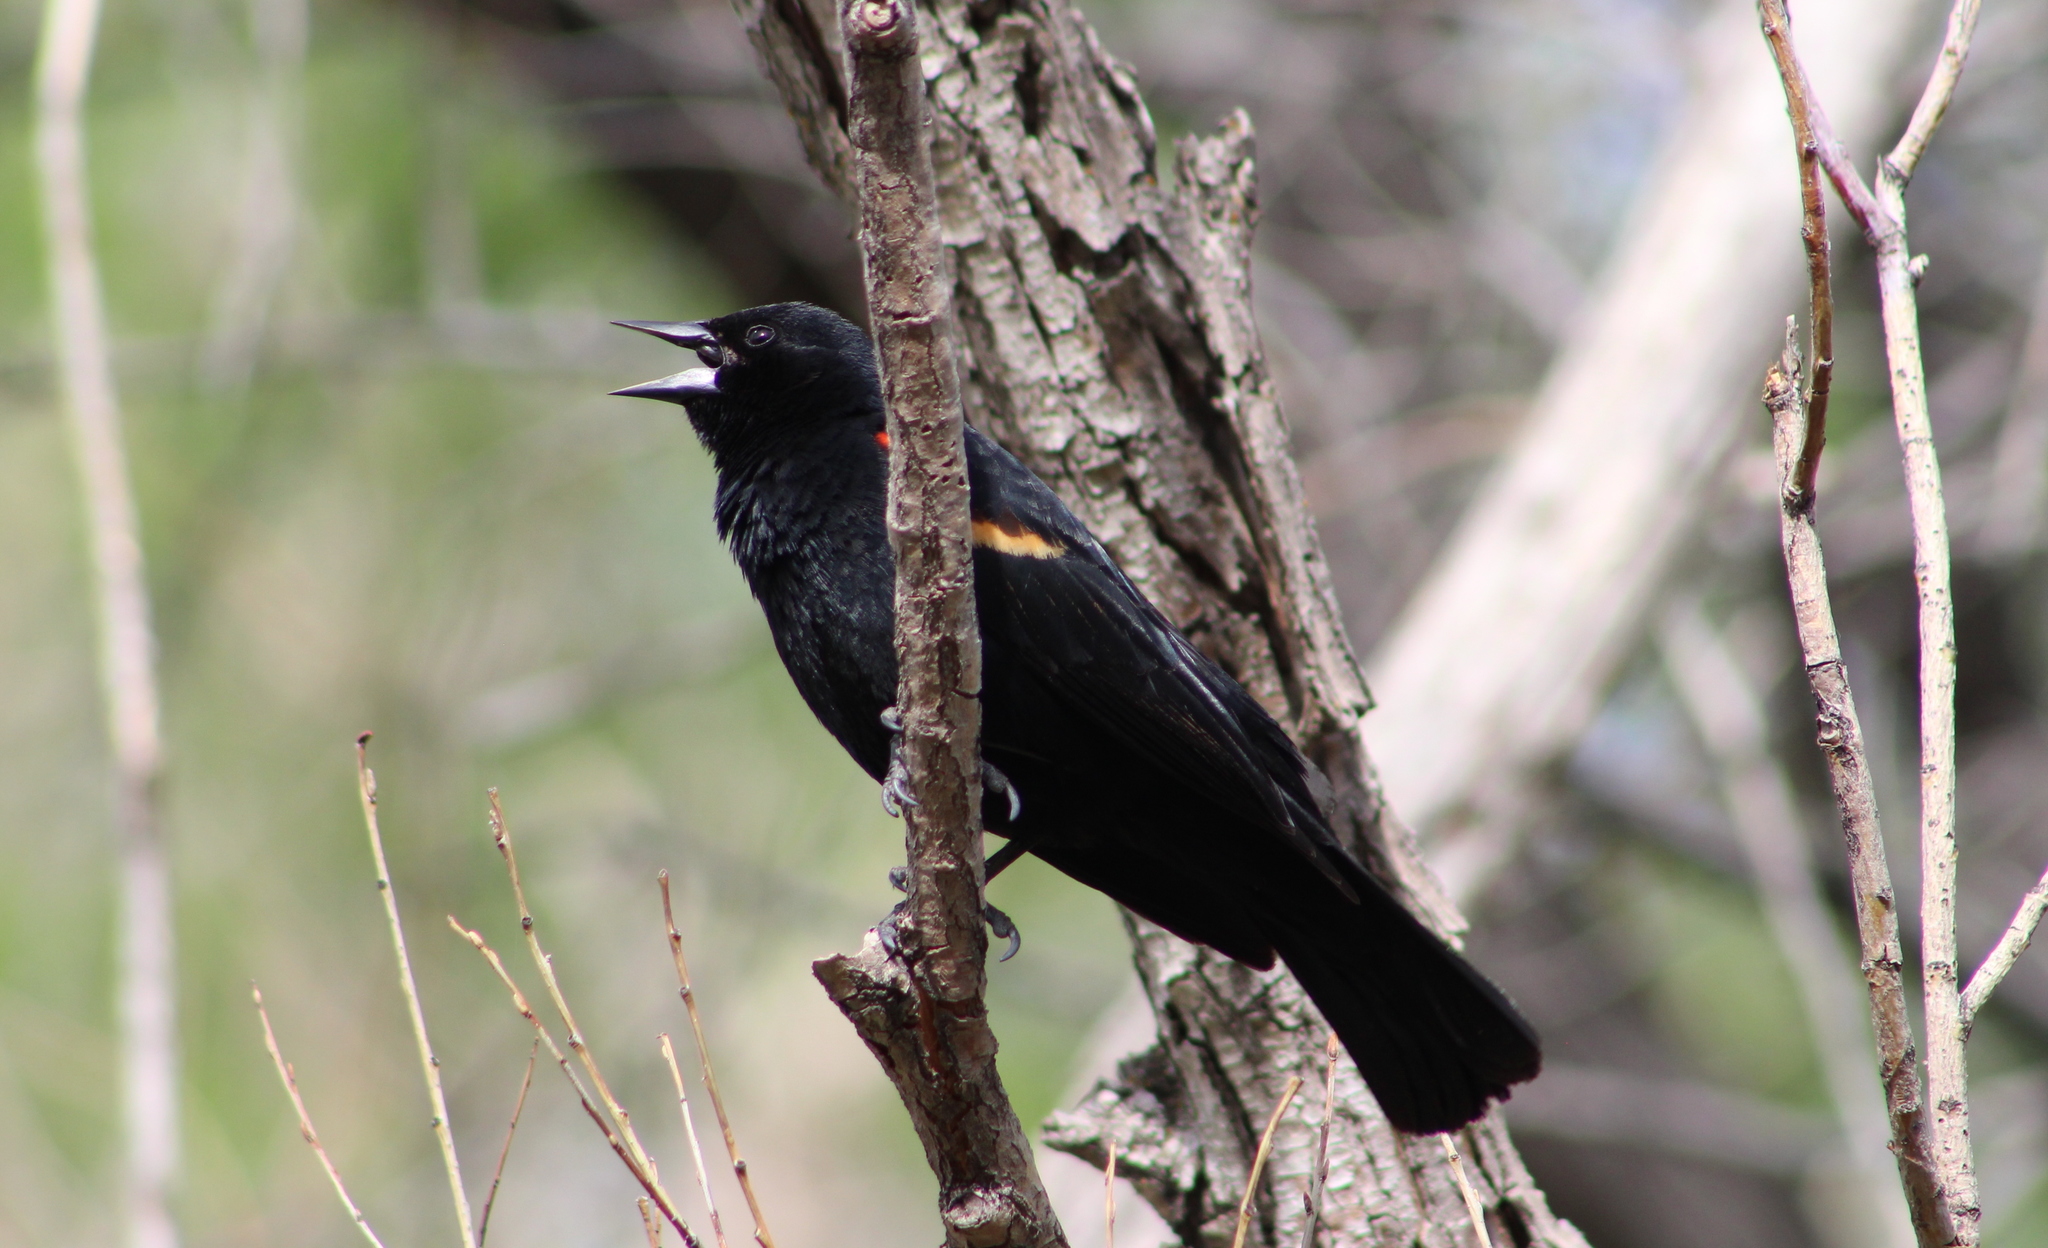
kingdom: Animalia
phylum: Chordata
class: Aves
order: Passeriformes
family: Icteridae
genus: Agelaius
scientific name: Agelaius phoeniceus
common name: Red-winged blackbird
